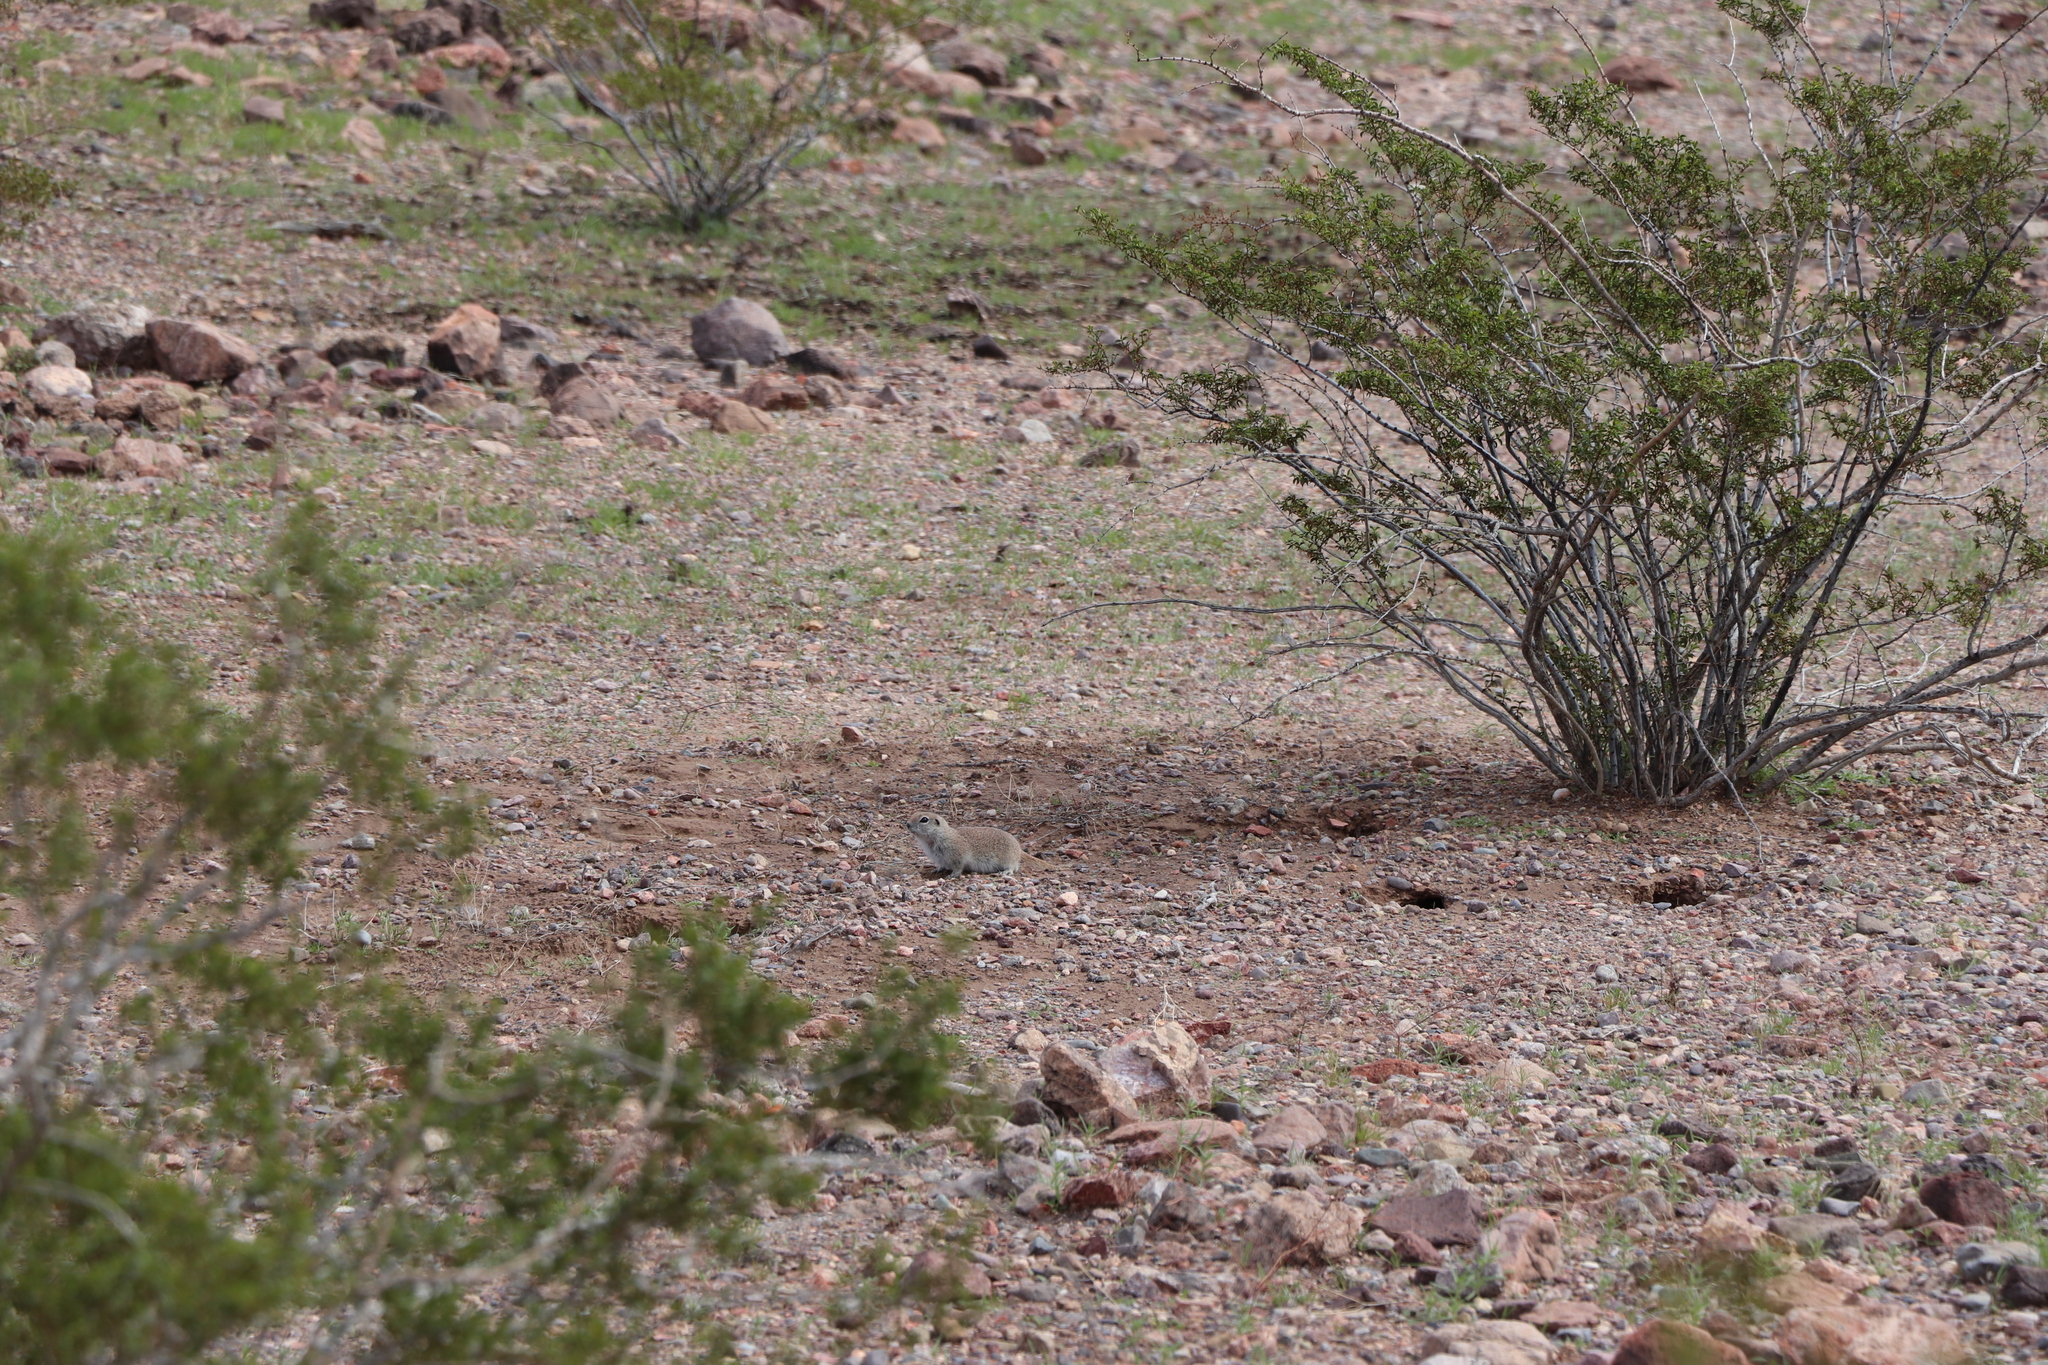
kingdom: Animalia
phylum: Chordata
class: Mammalia
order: Rodentia
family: Sciuridae
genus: Xerospermophilus
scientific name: Xerospermophilus tereticaudus
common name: Round-tailed ground squirrel
